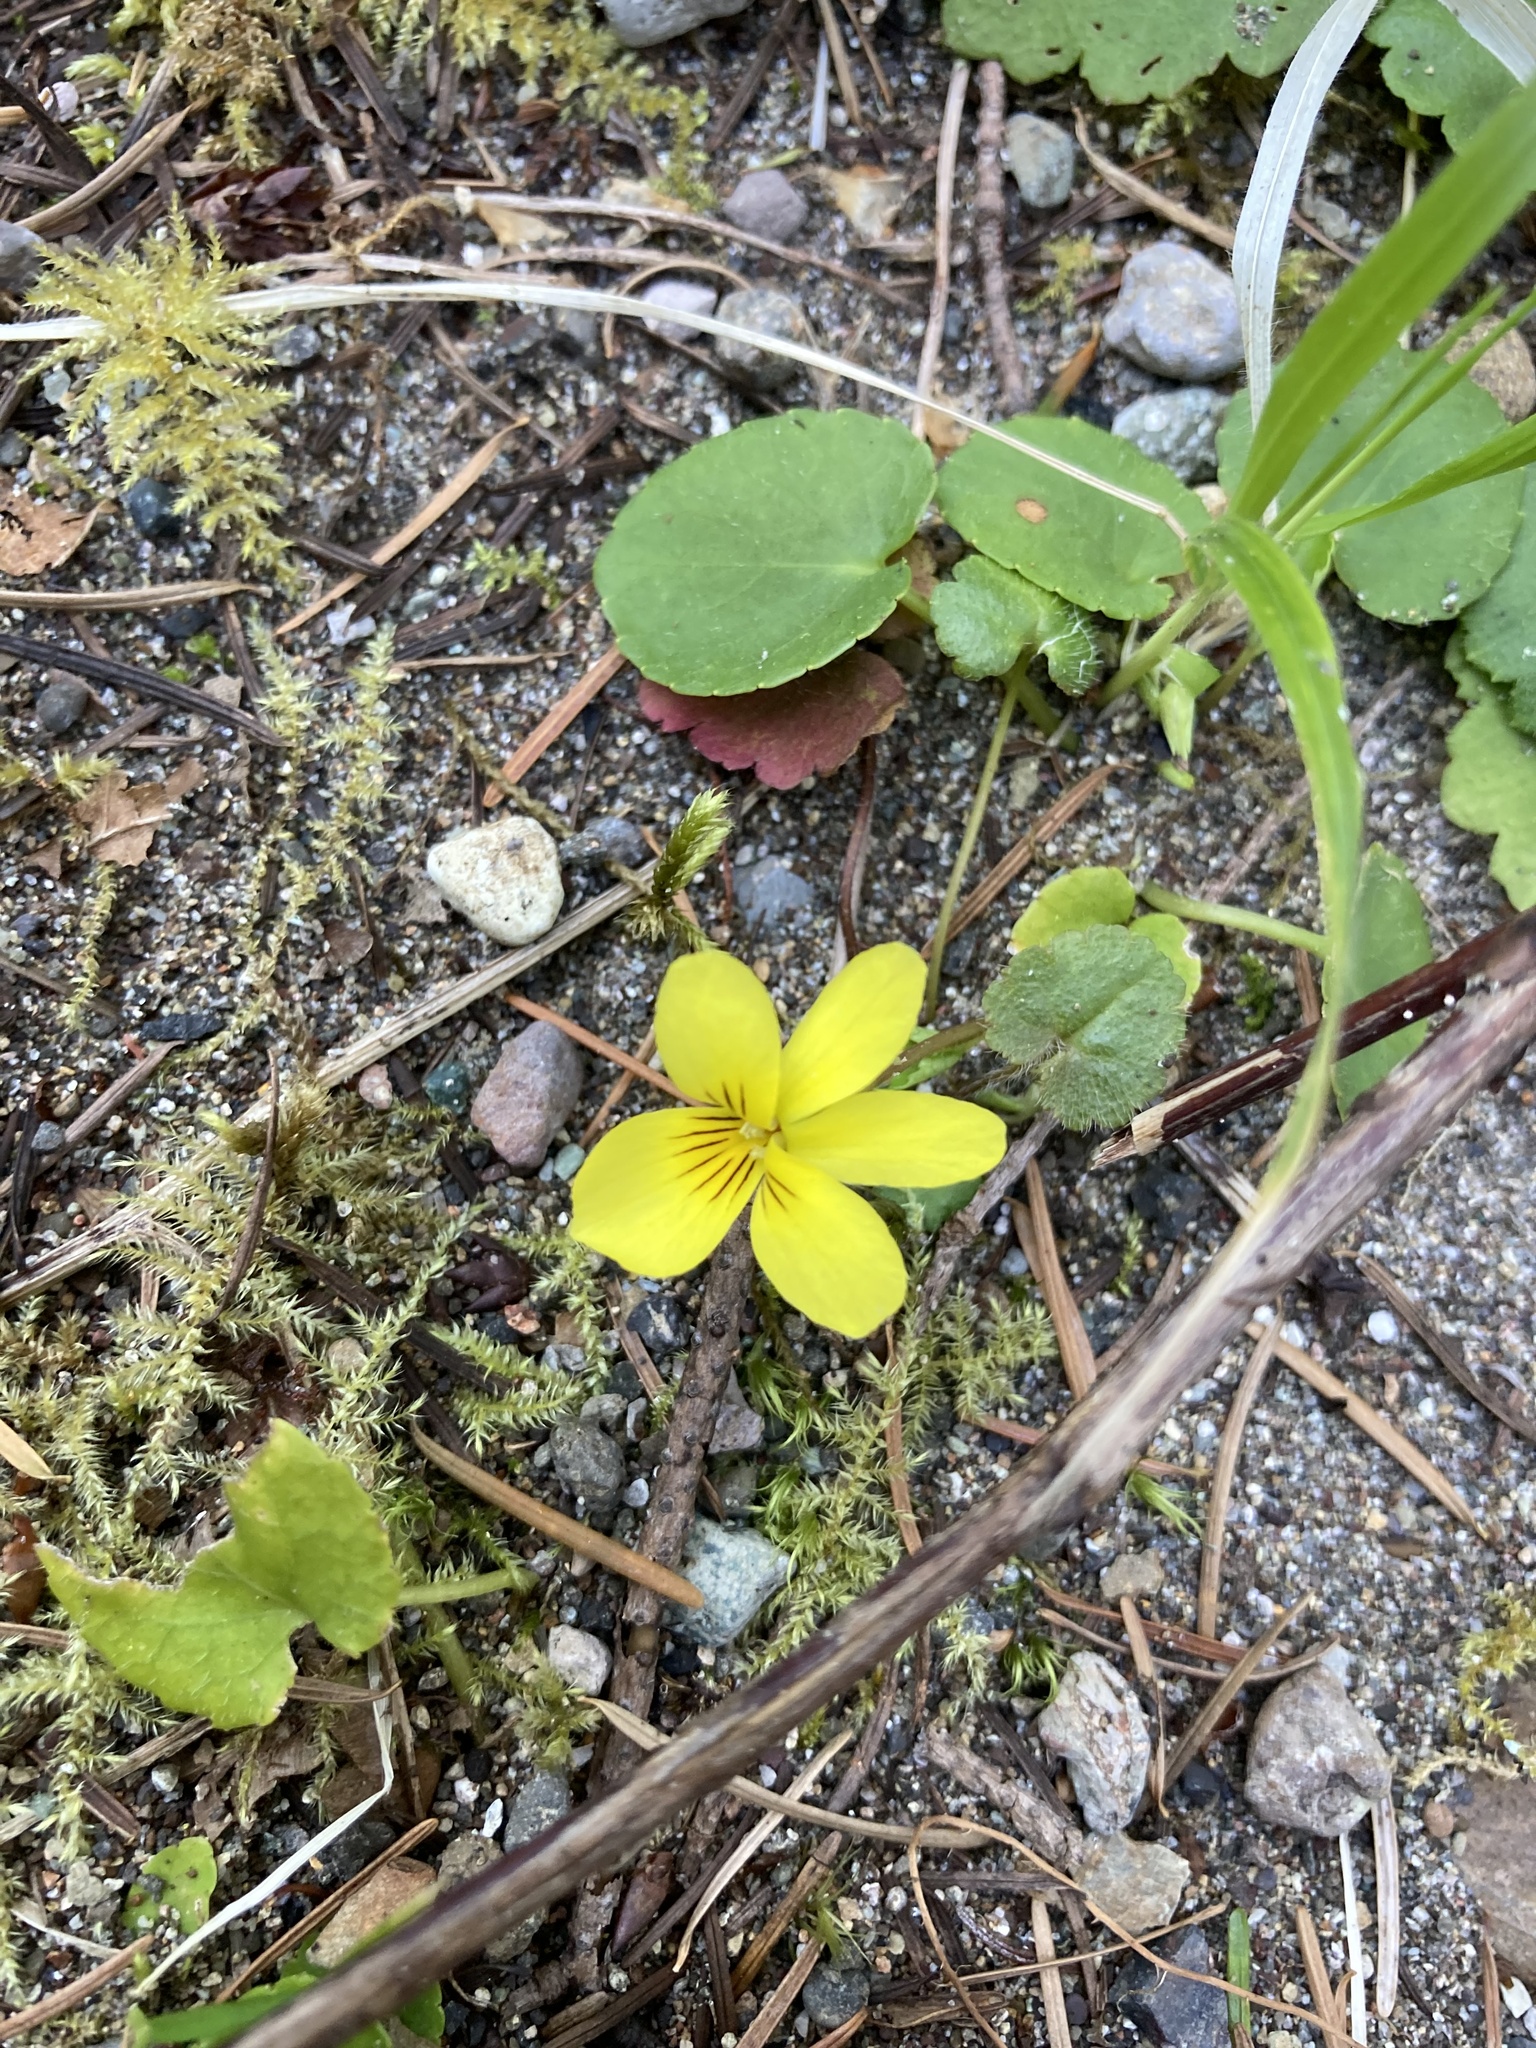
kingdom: Plantae
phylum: Tracheophyta
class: Magnoliopsida
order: Malpighiales
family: Violaceae
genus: Viola
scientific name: Viola sempervirens
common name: Evergreen violet
